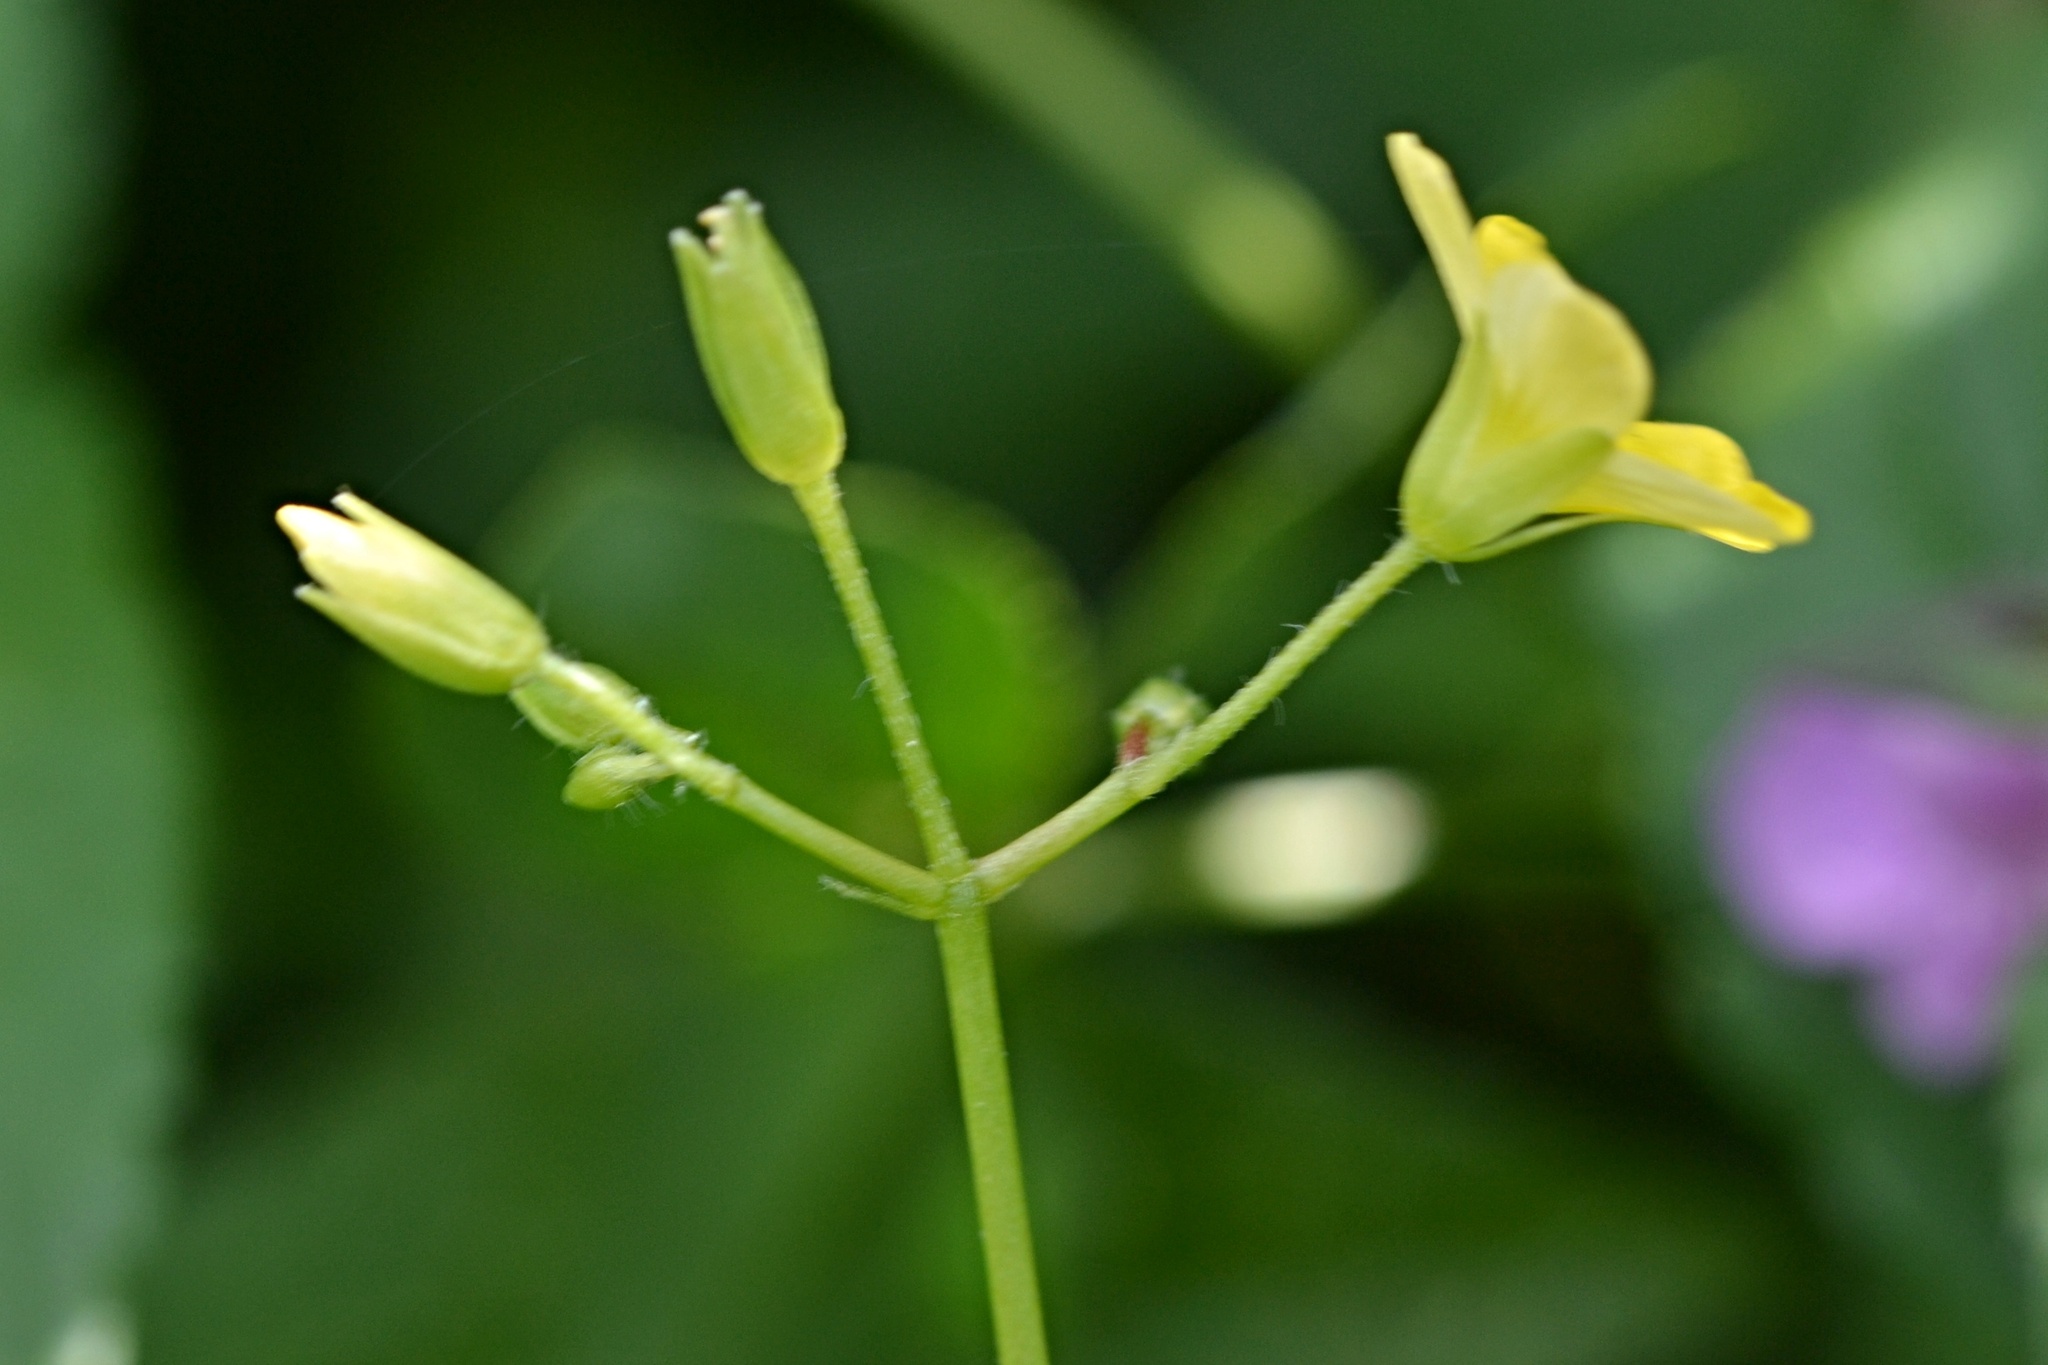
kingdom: Plantae
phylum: Tracheophyta
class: Magnoliopsida
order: Oxalidales
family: Oxalidaceae
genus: Oxalis
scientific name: Oxalis stricta
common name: Upright yellow-sorrel
